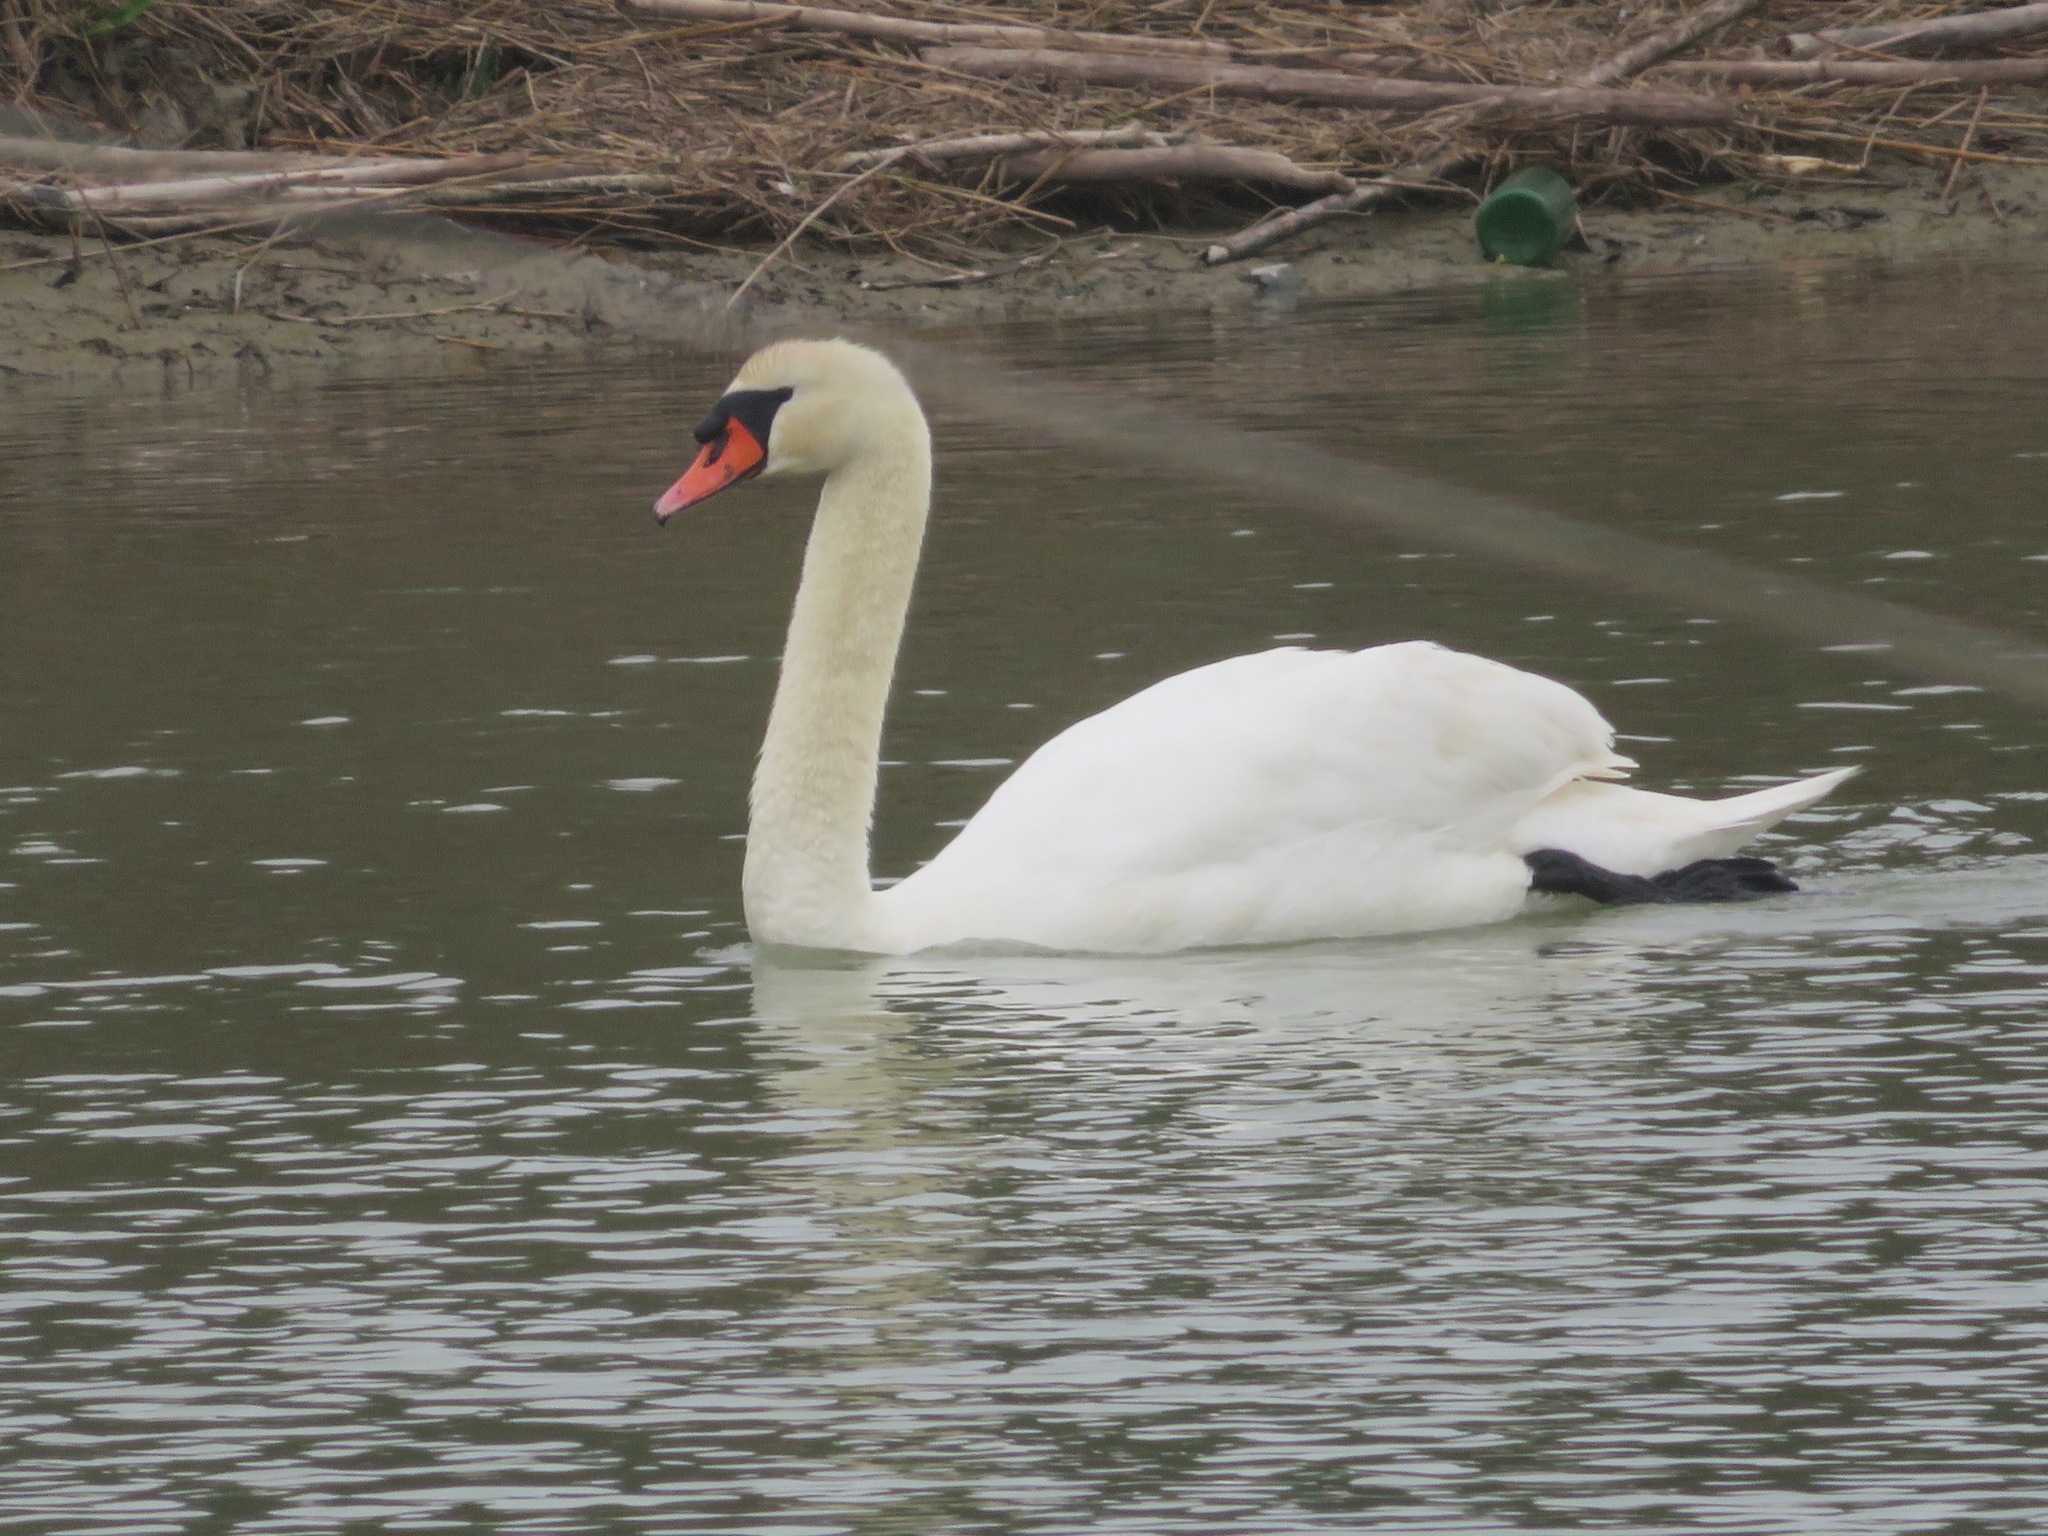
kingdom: Animalia
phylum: Chordata
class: Aves
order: Anseriformes
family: Anatidae
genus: Cygnus
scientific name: Cygnus olor
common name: Mute swan
